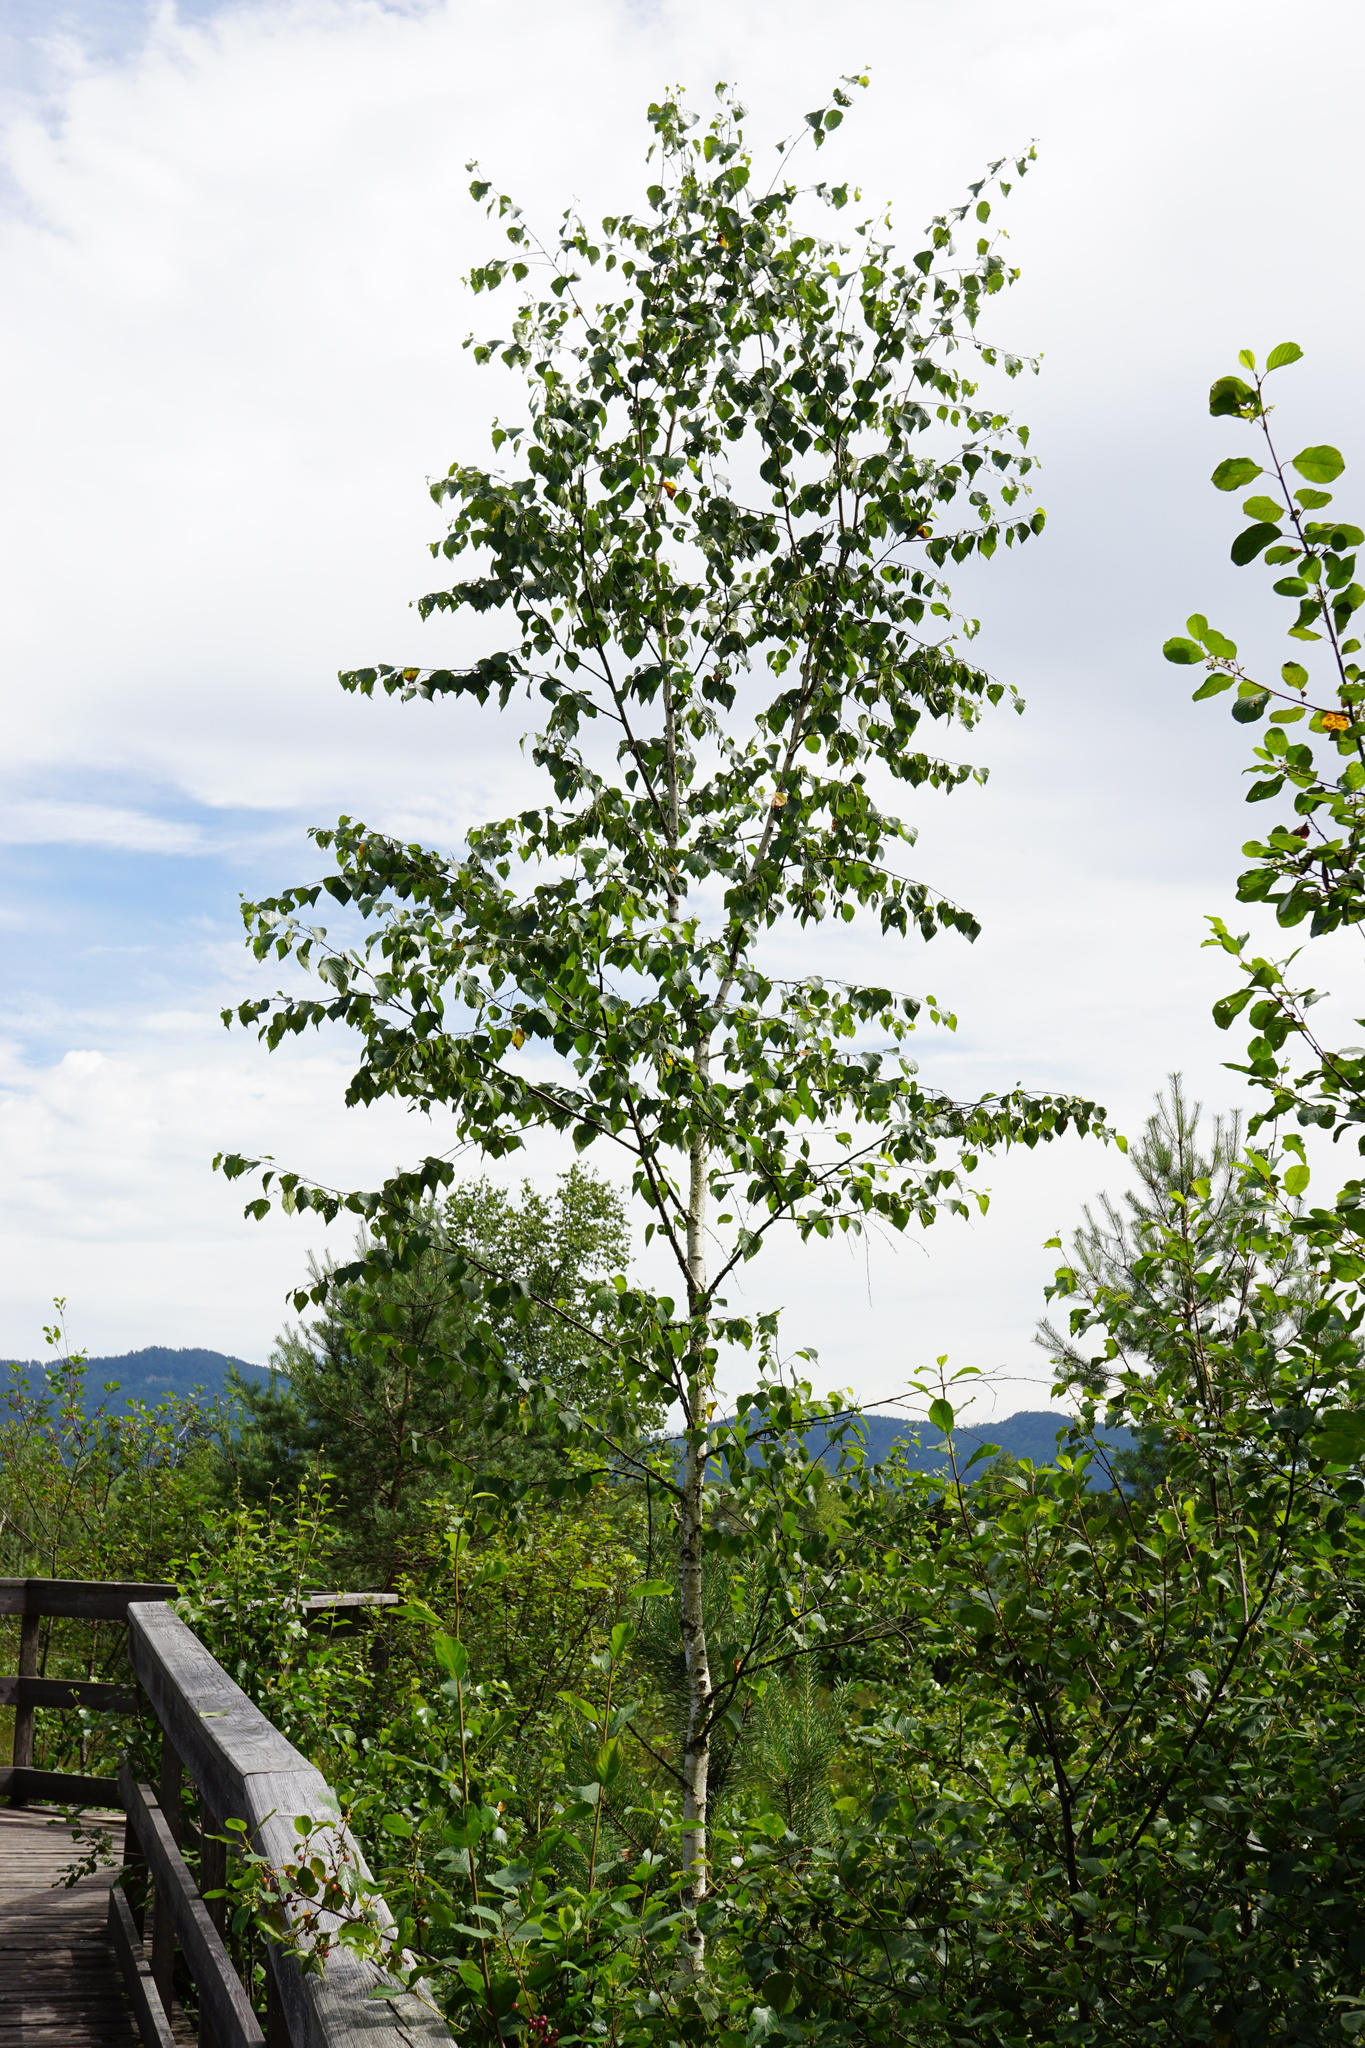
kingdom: Plantae
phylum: Tracheophyta
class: Magnoliopsida
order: Fagales
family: Betulaceae
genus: Betula
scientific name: Betula pubescens
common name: Downy birch
